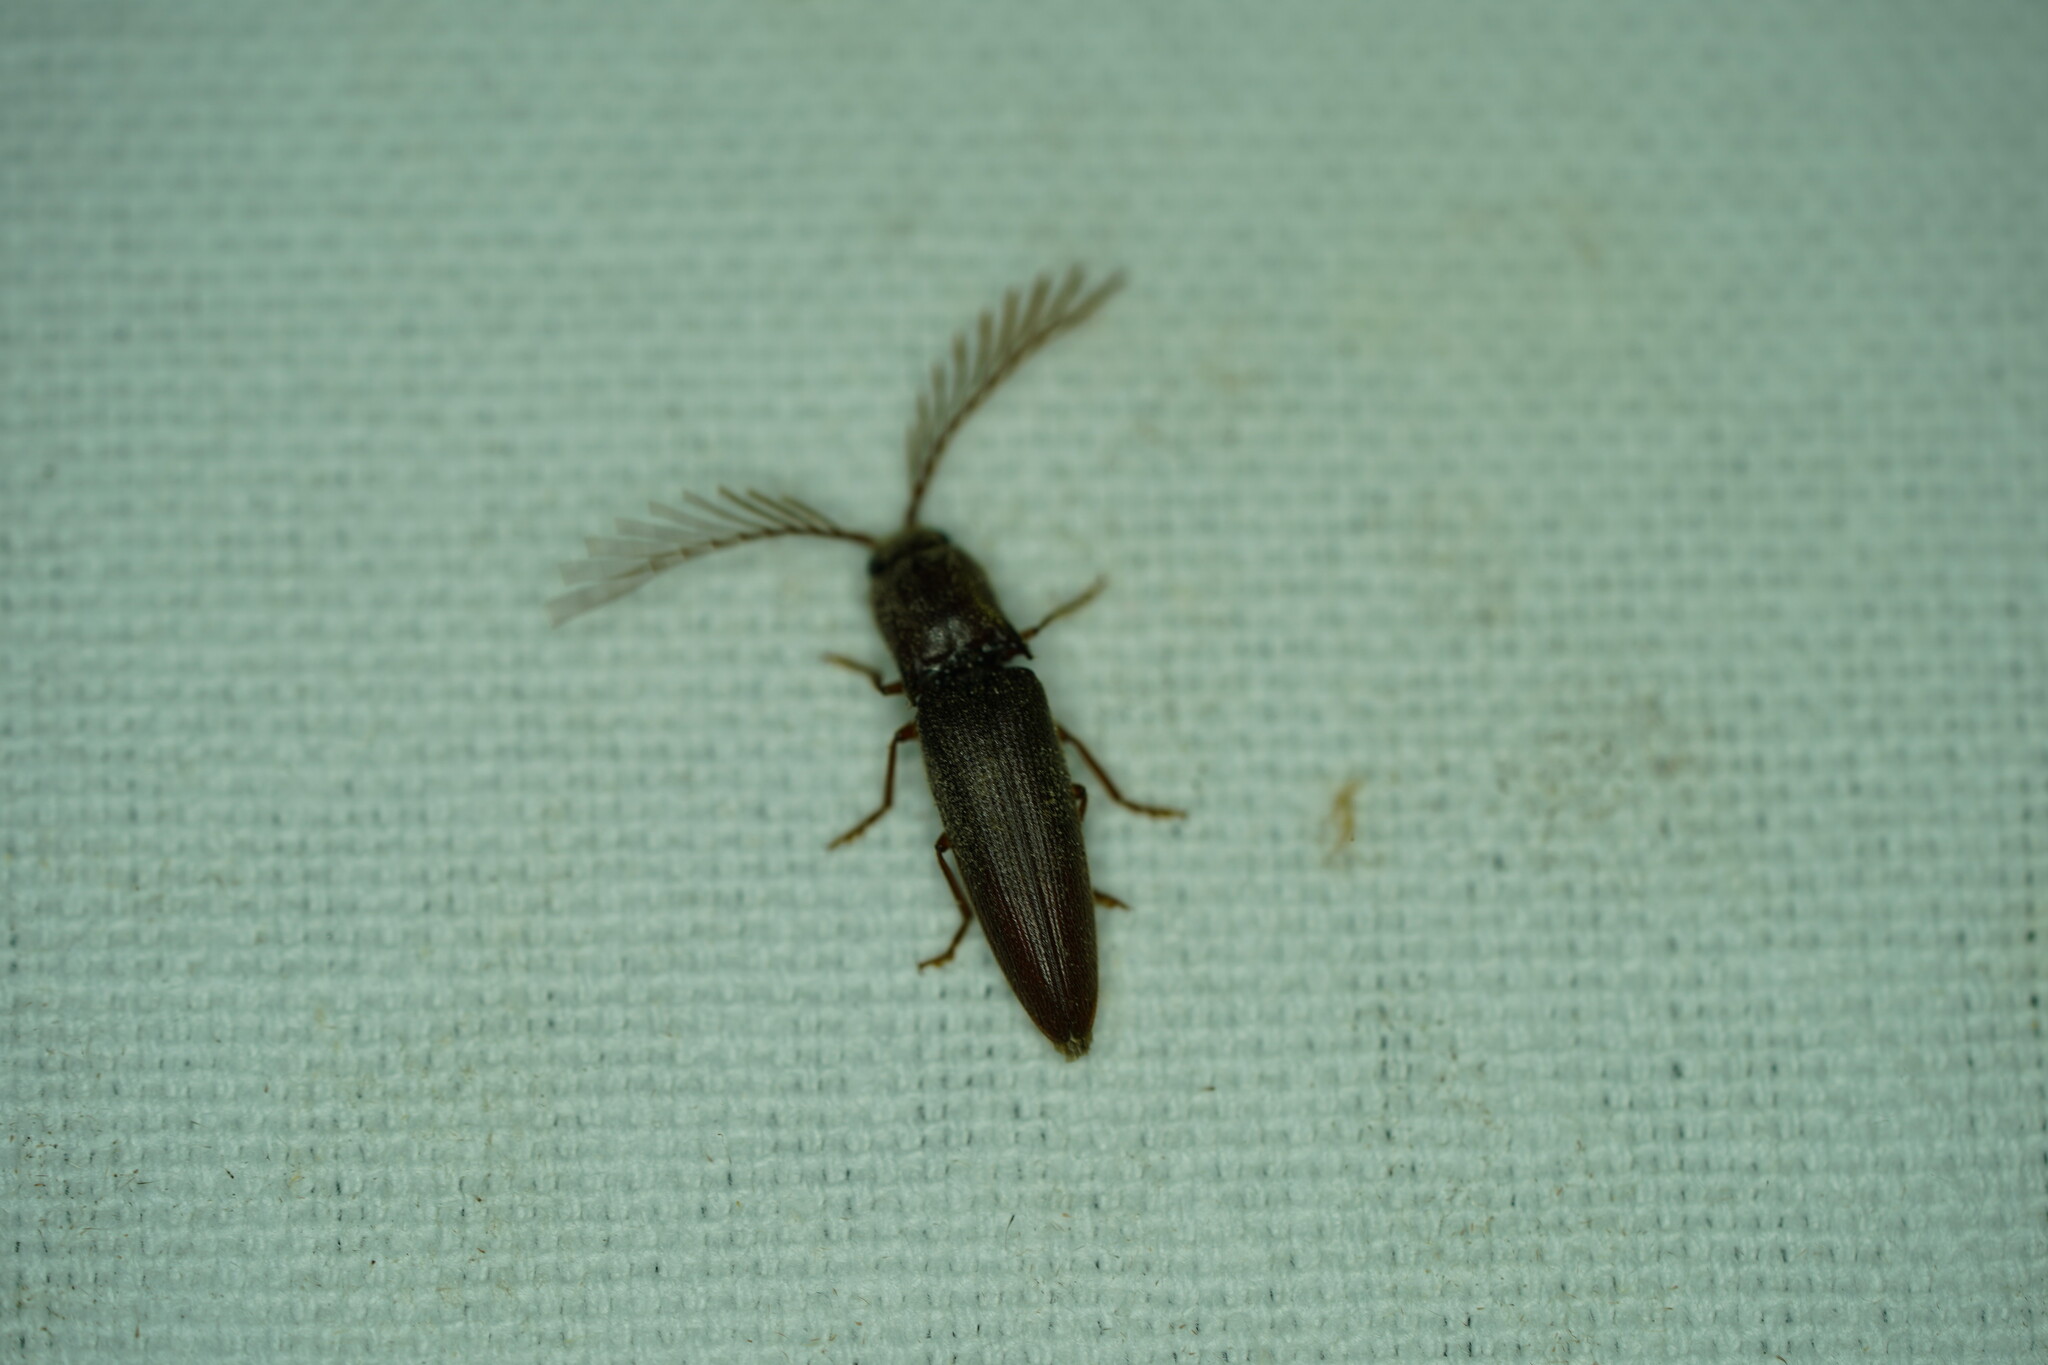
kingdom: Animalia
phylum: Arthropoda
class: Insecta
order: Coleoptera
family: Elateridae
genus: Dicrepidius
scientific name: Dicrepidius palmatus
